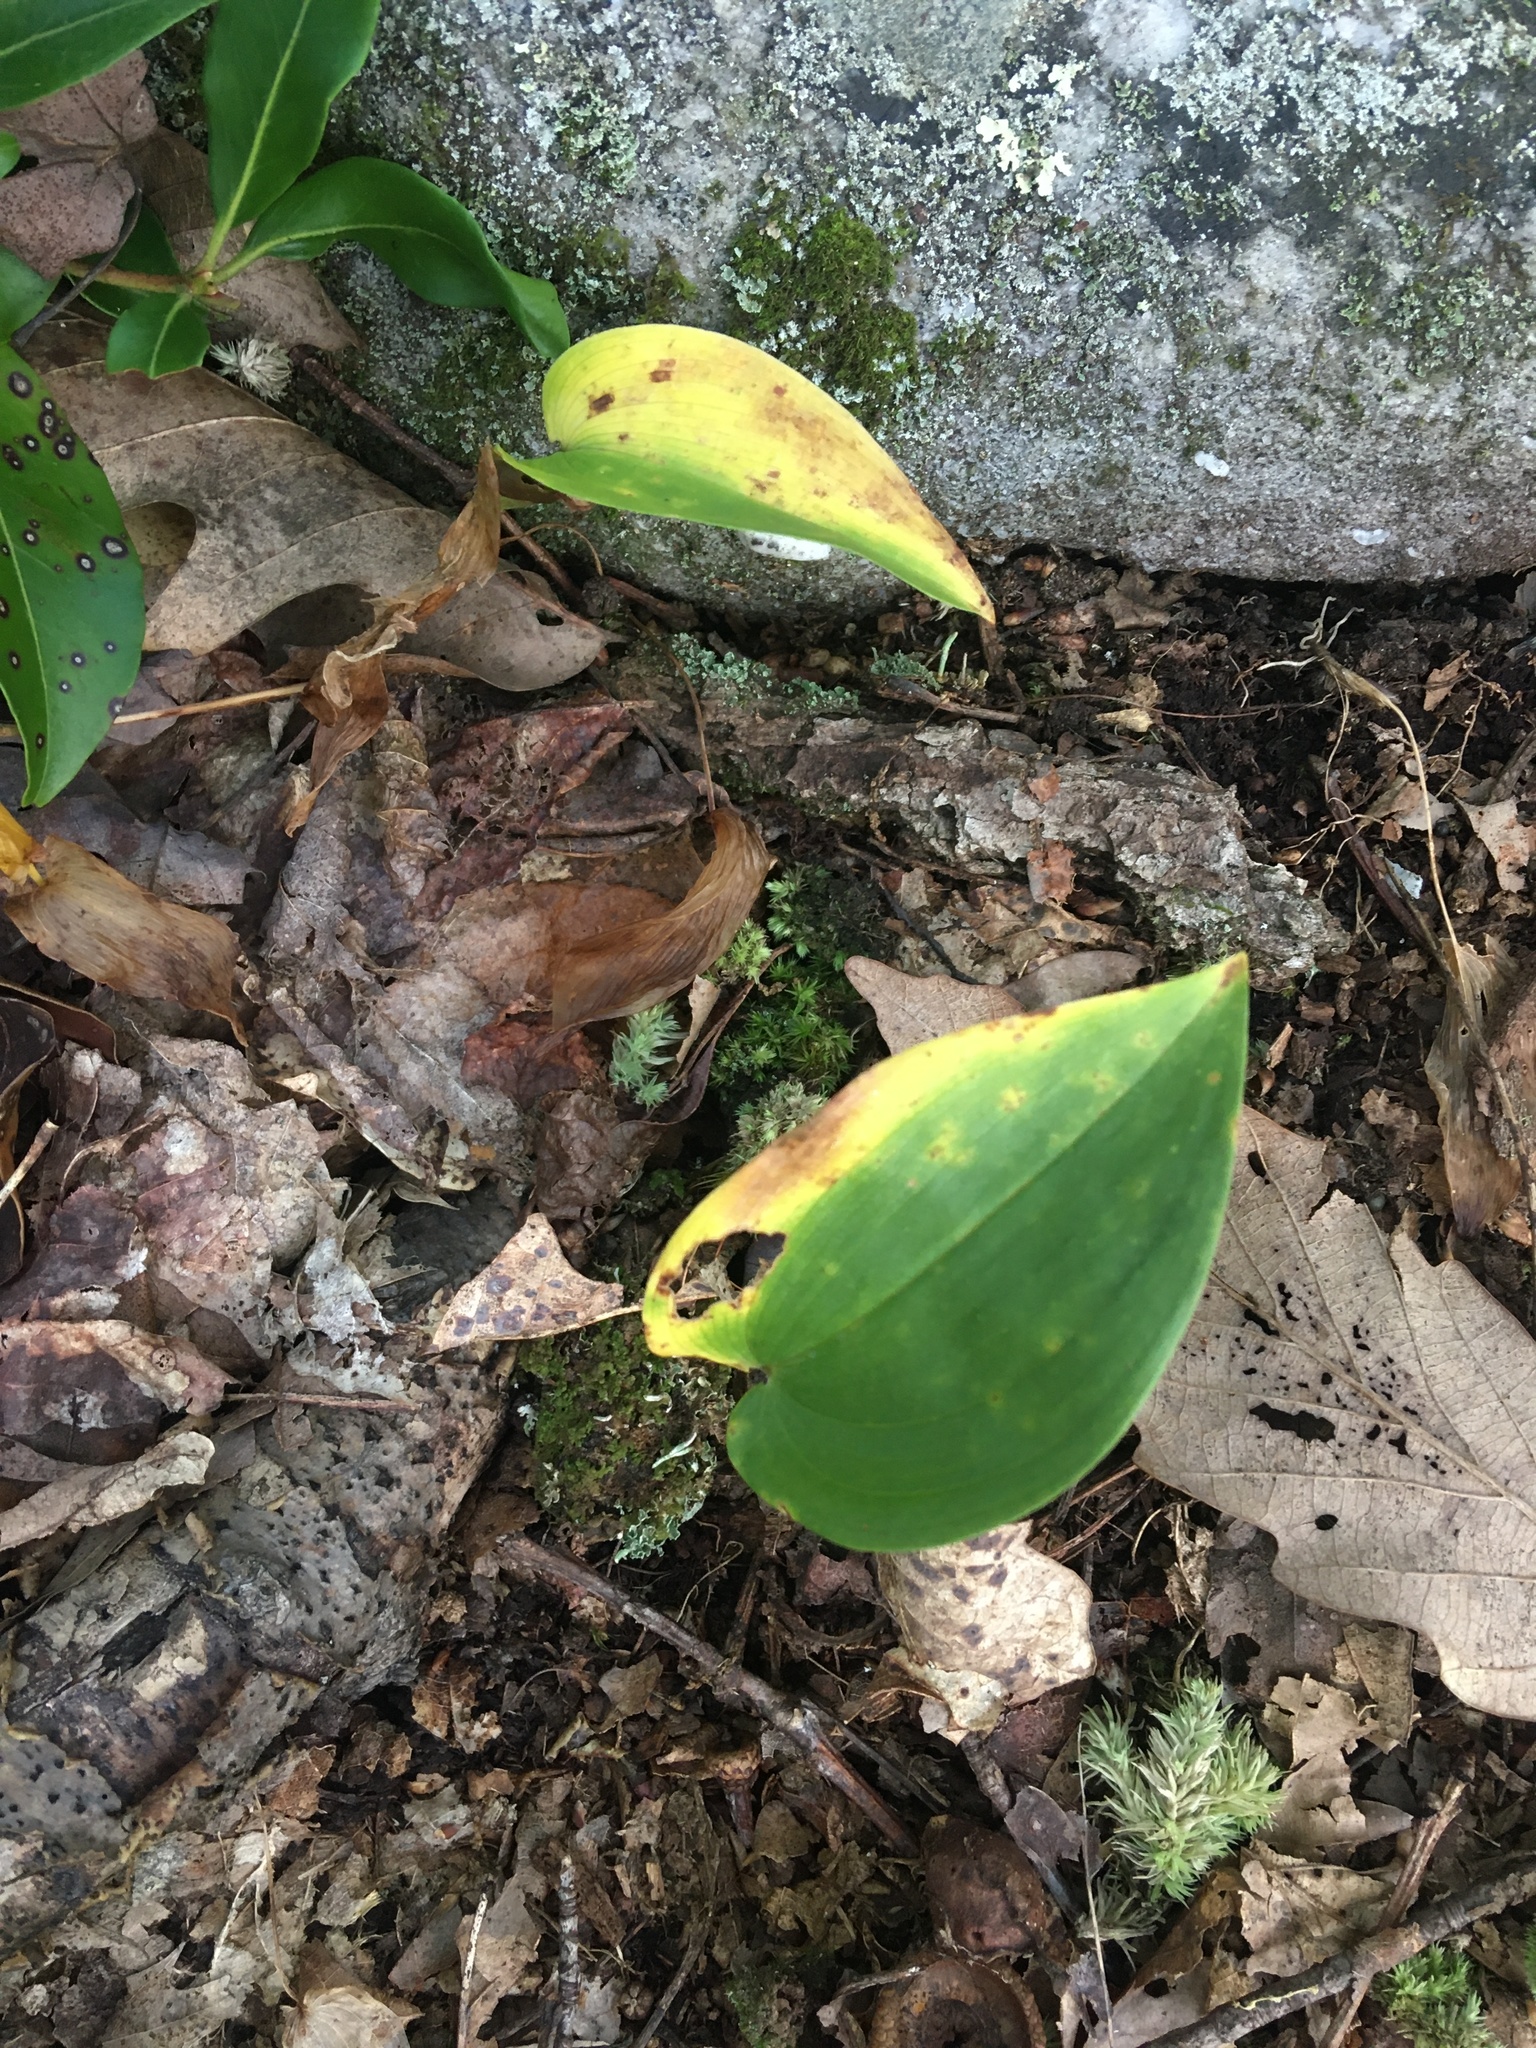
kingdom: Plantae
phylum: Tracheophyta
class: Liliopsida
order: Asparagales
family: Asparagaceae
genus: Maianthemum
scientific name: Maianthemum canadense
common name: False lily-of-the-valley
